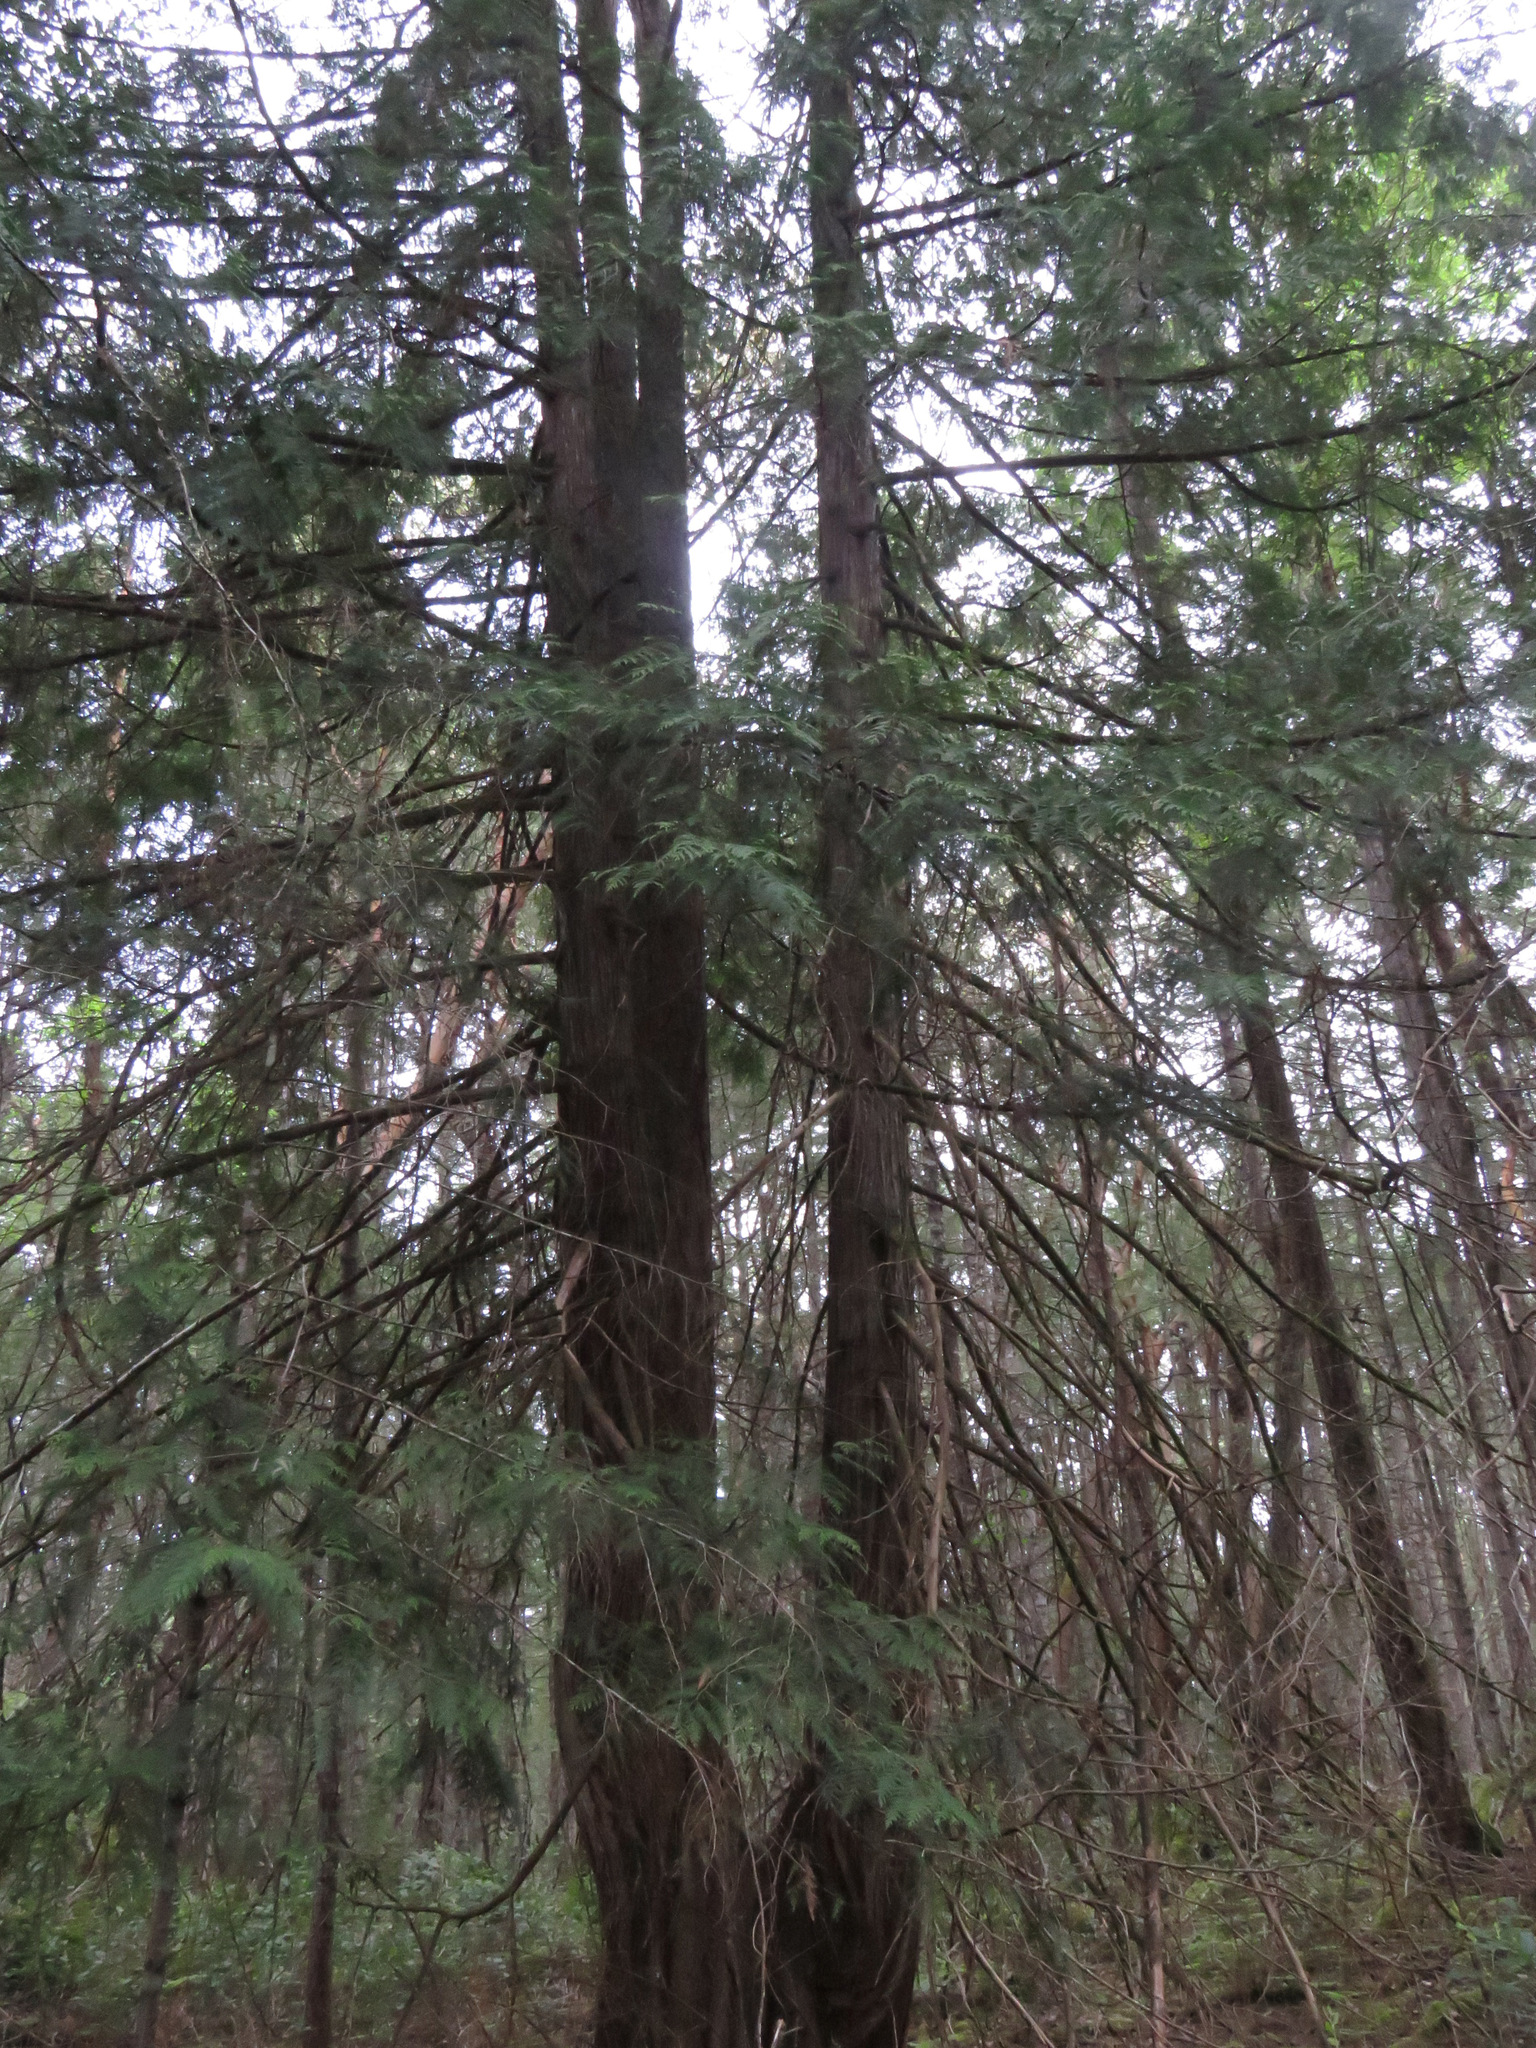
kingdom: Plantae
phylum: Tracheophyta
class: Pinopsida
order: Pinales
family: Cupressaceae
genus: Thuja
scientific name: Thuja plicata
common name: Western red-cedar
